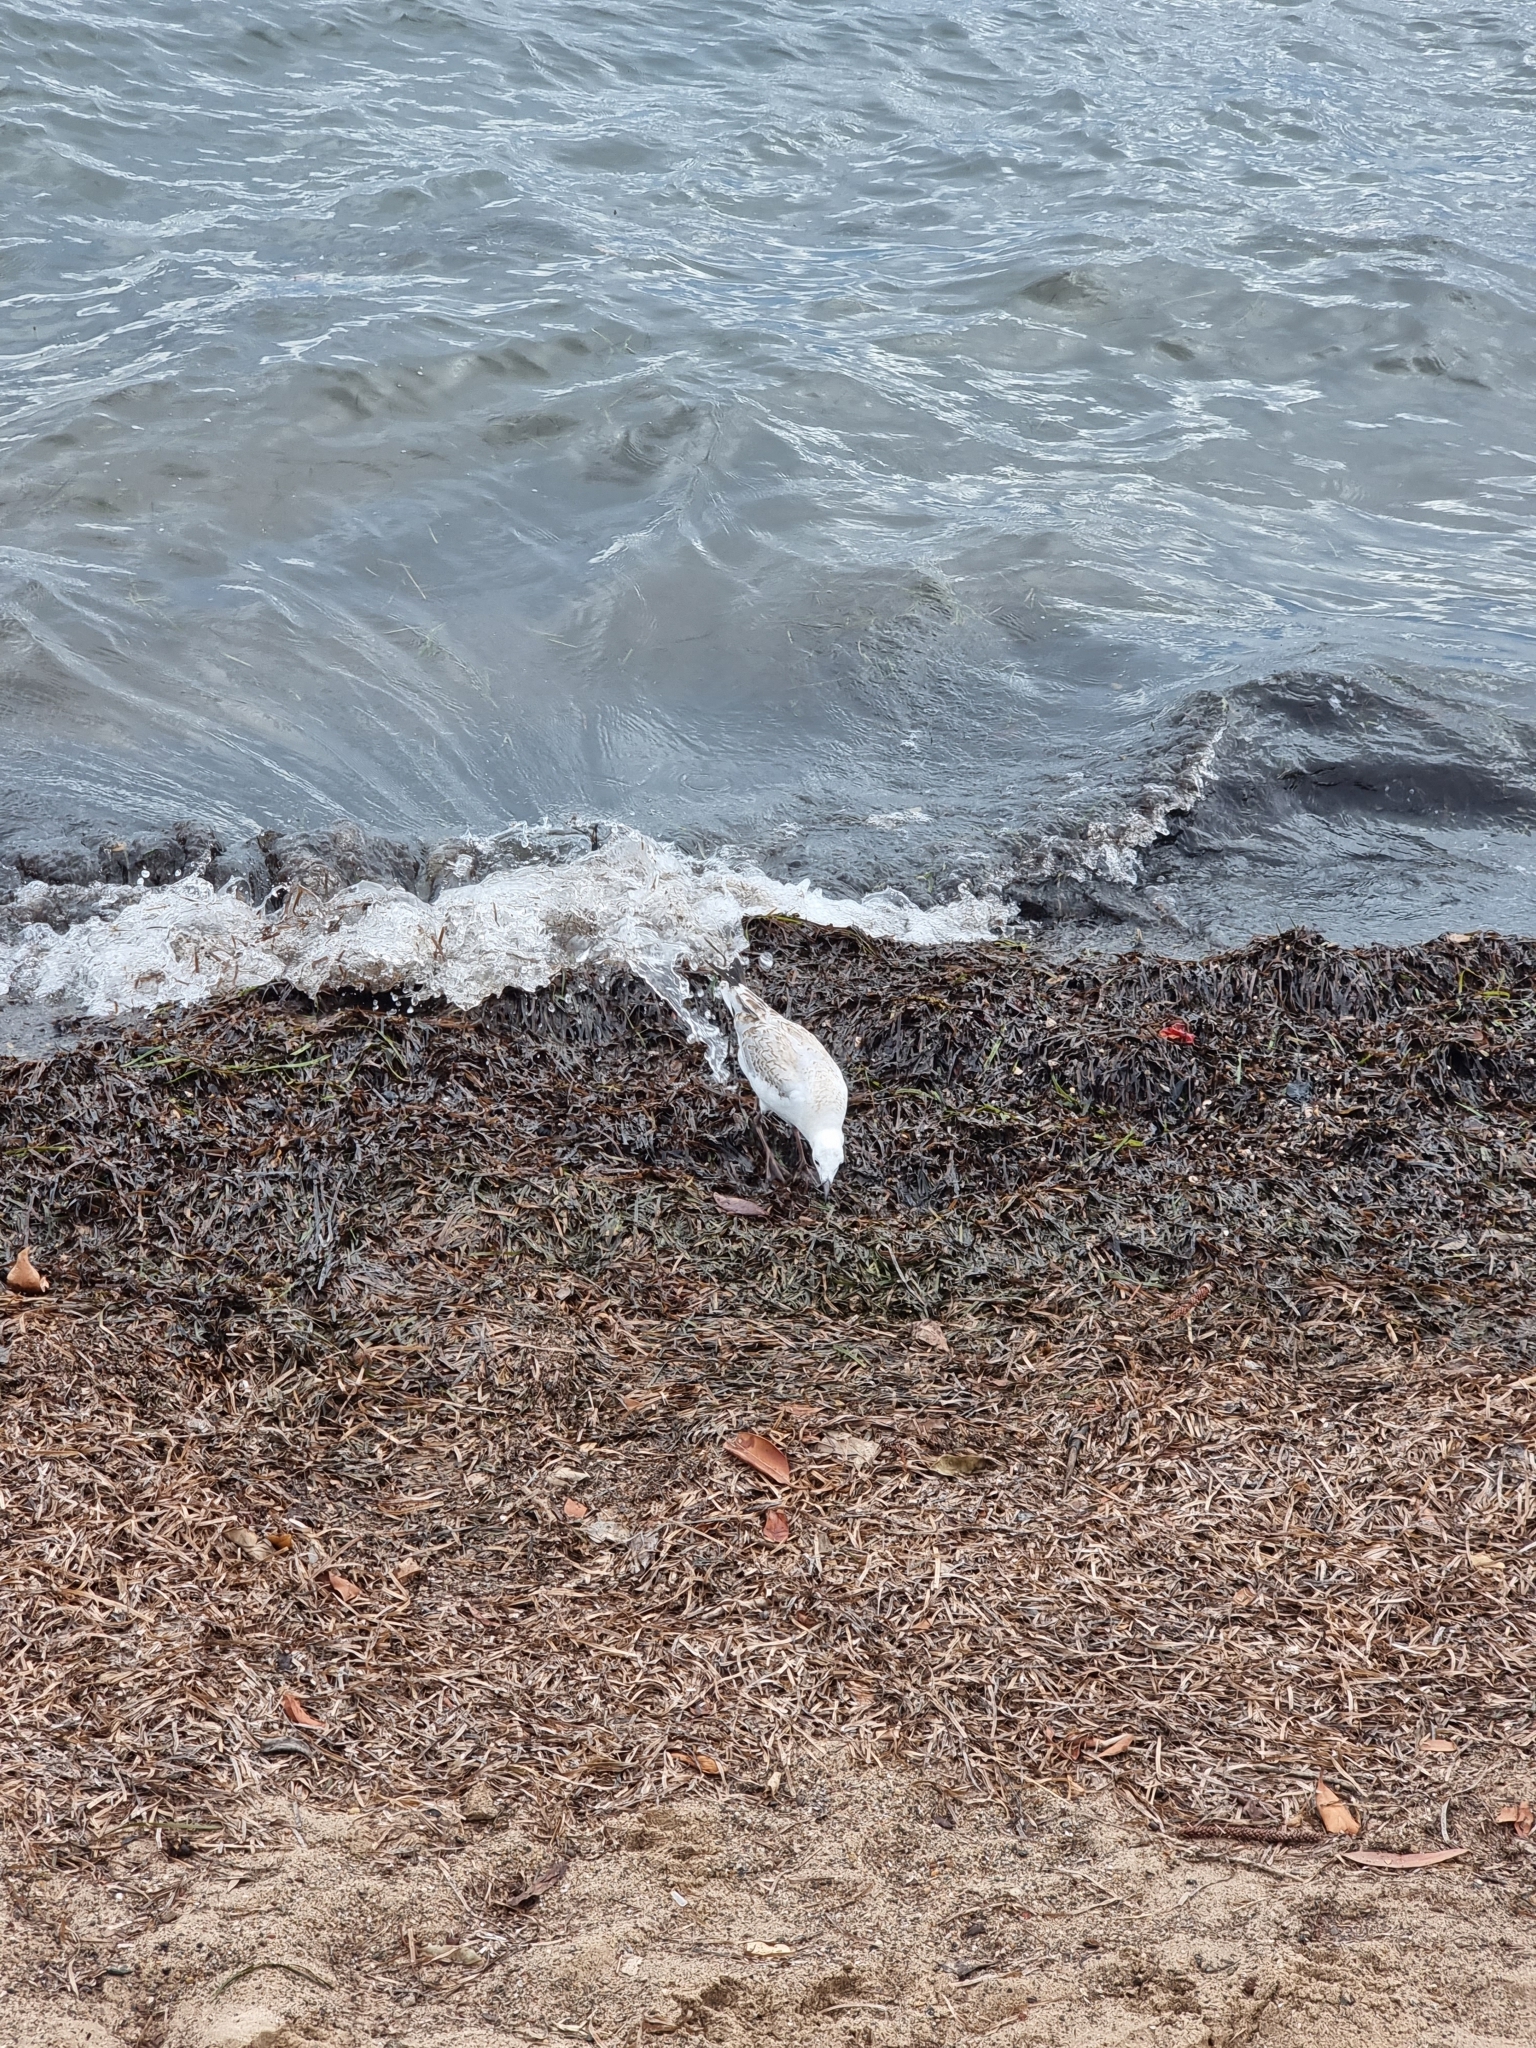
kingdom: Animalia
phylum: Chordata
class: Aves
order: Charadriiformes
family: Laridae
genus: Chroicocephalus
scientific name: Chroicocephalus novaehollandiae
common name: Silver gull
